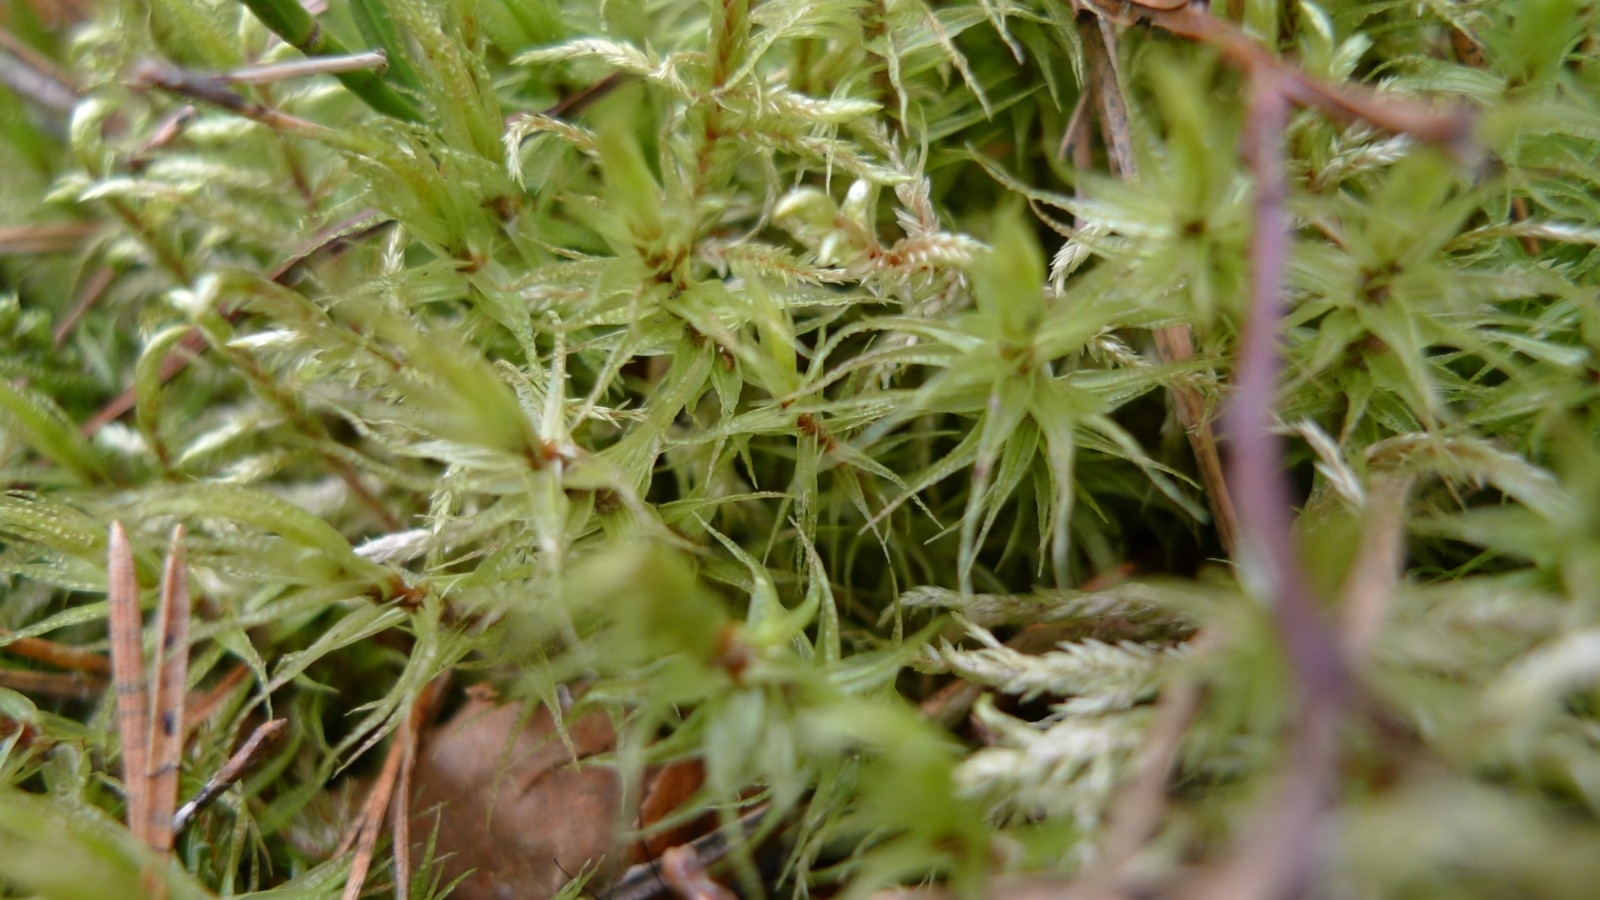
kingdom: Plantae
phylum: Bryophyta
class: Bryopsida
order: Dicranales
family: Dicranaceae
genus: Dicranum
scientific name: Dicranum polysetum
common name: Rugose fork-moss
